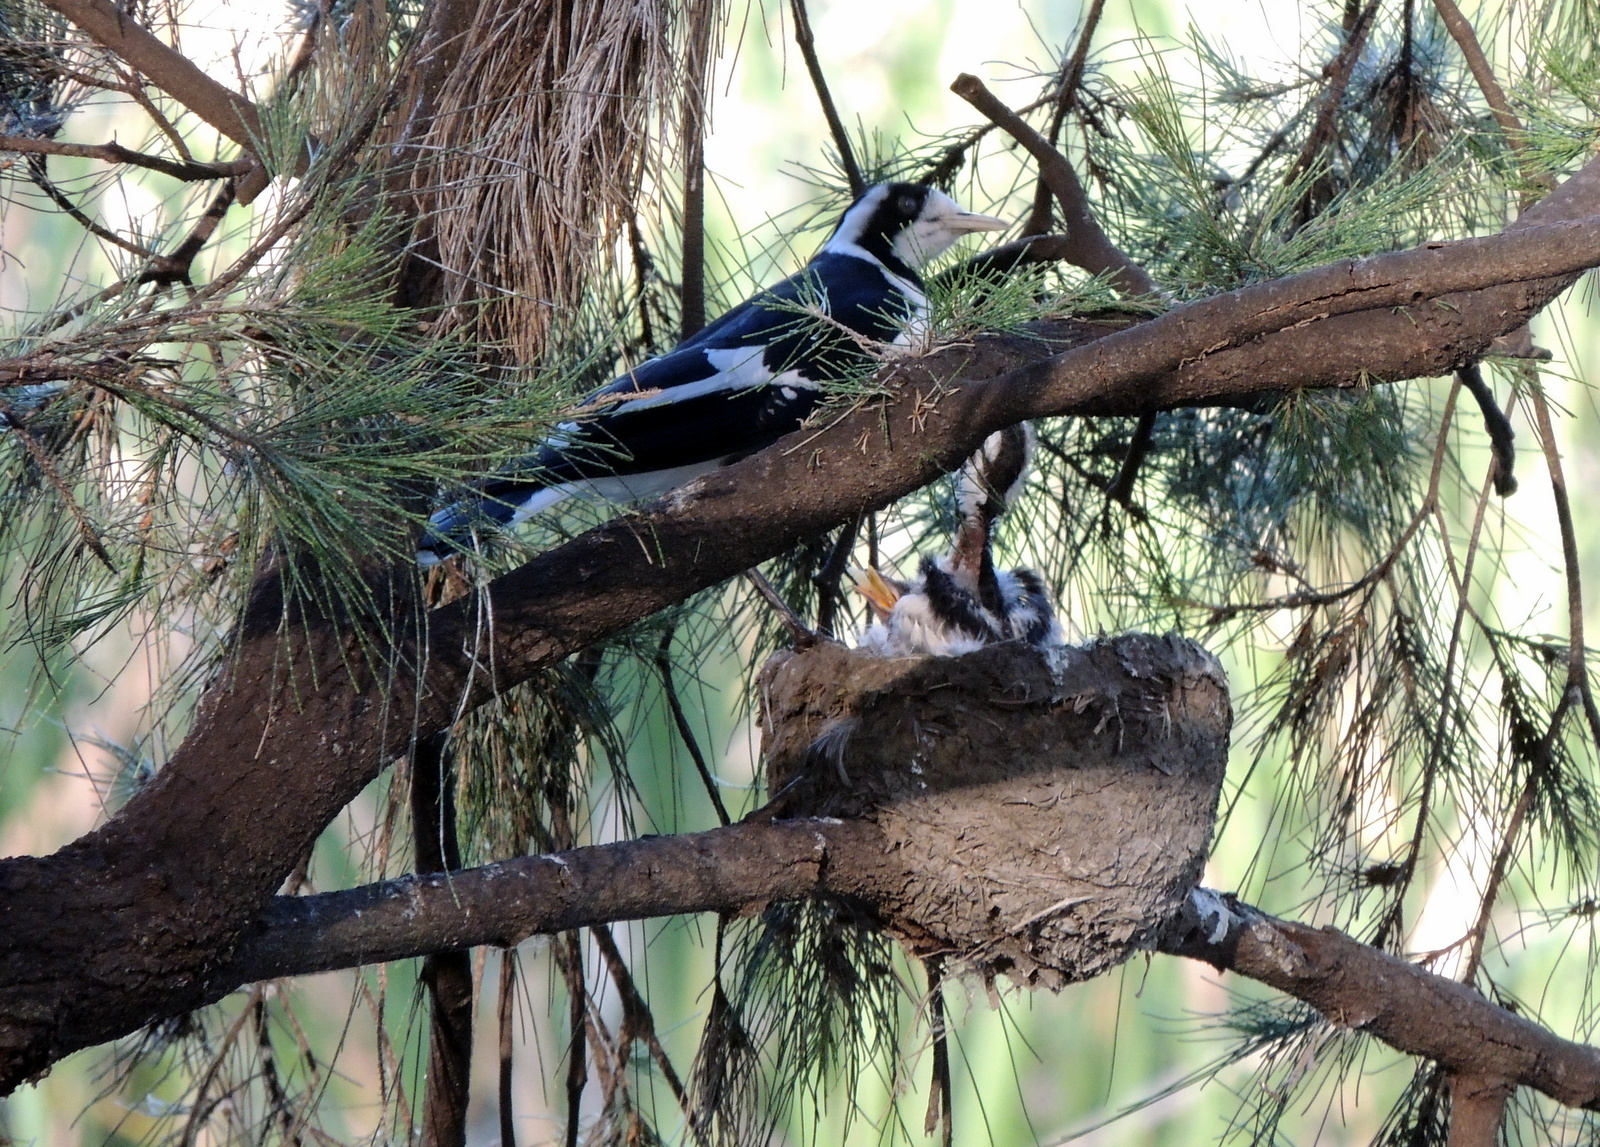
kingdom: Animalia
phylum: Chordata
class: Aves
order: Passeriformes
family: Monarchidae
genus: Grallina
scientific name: Grallina cyanoleuca
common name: Magpie-lark
